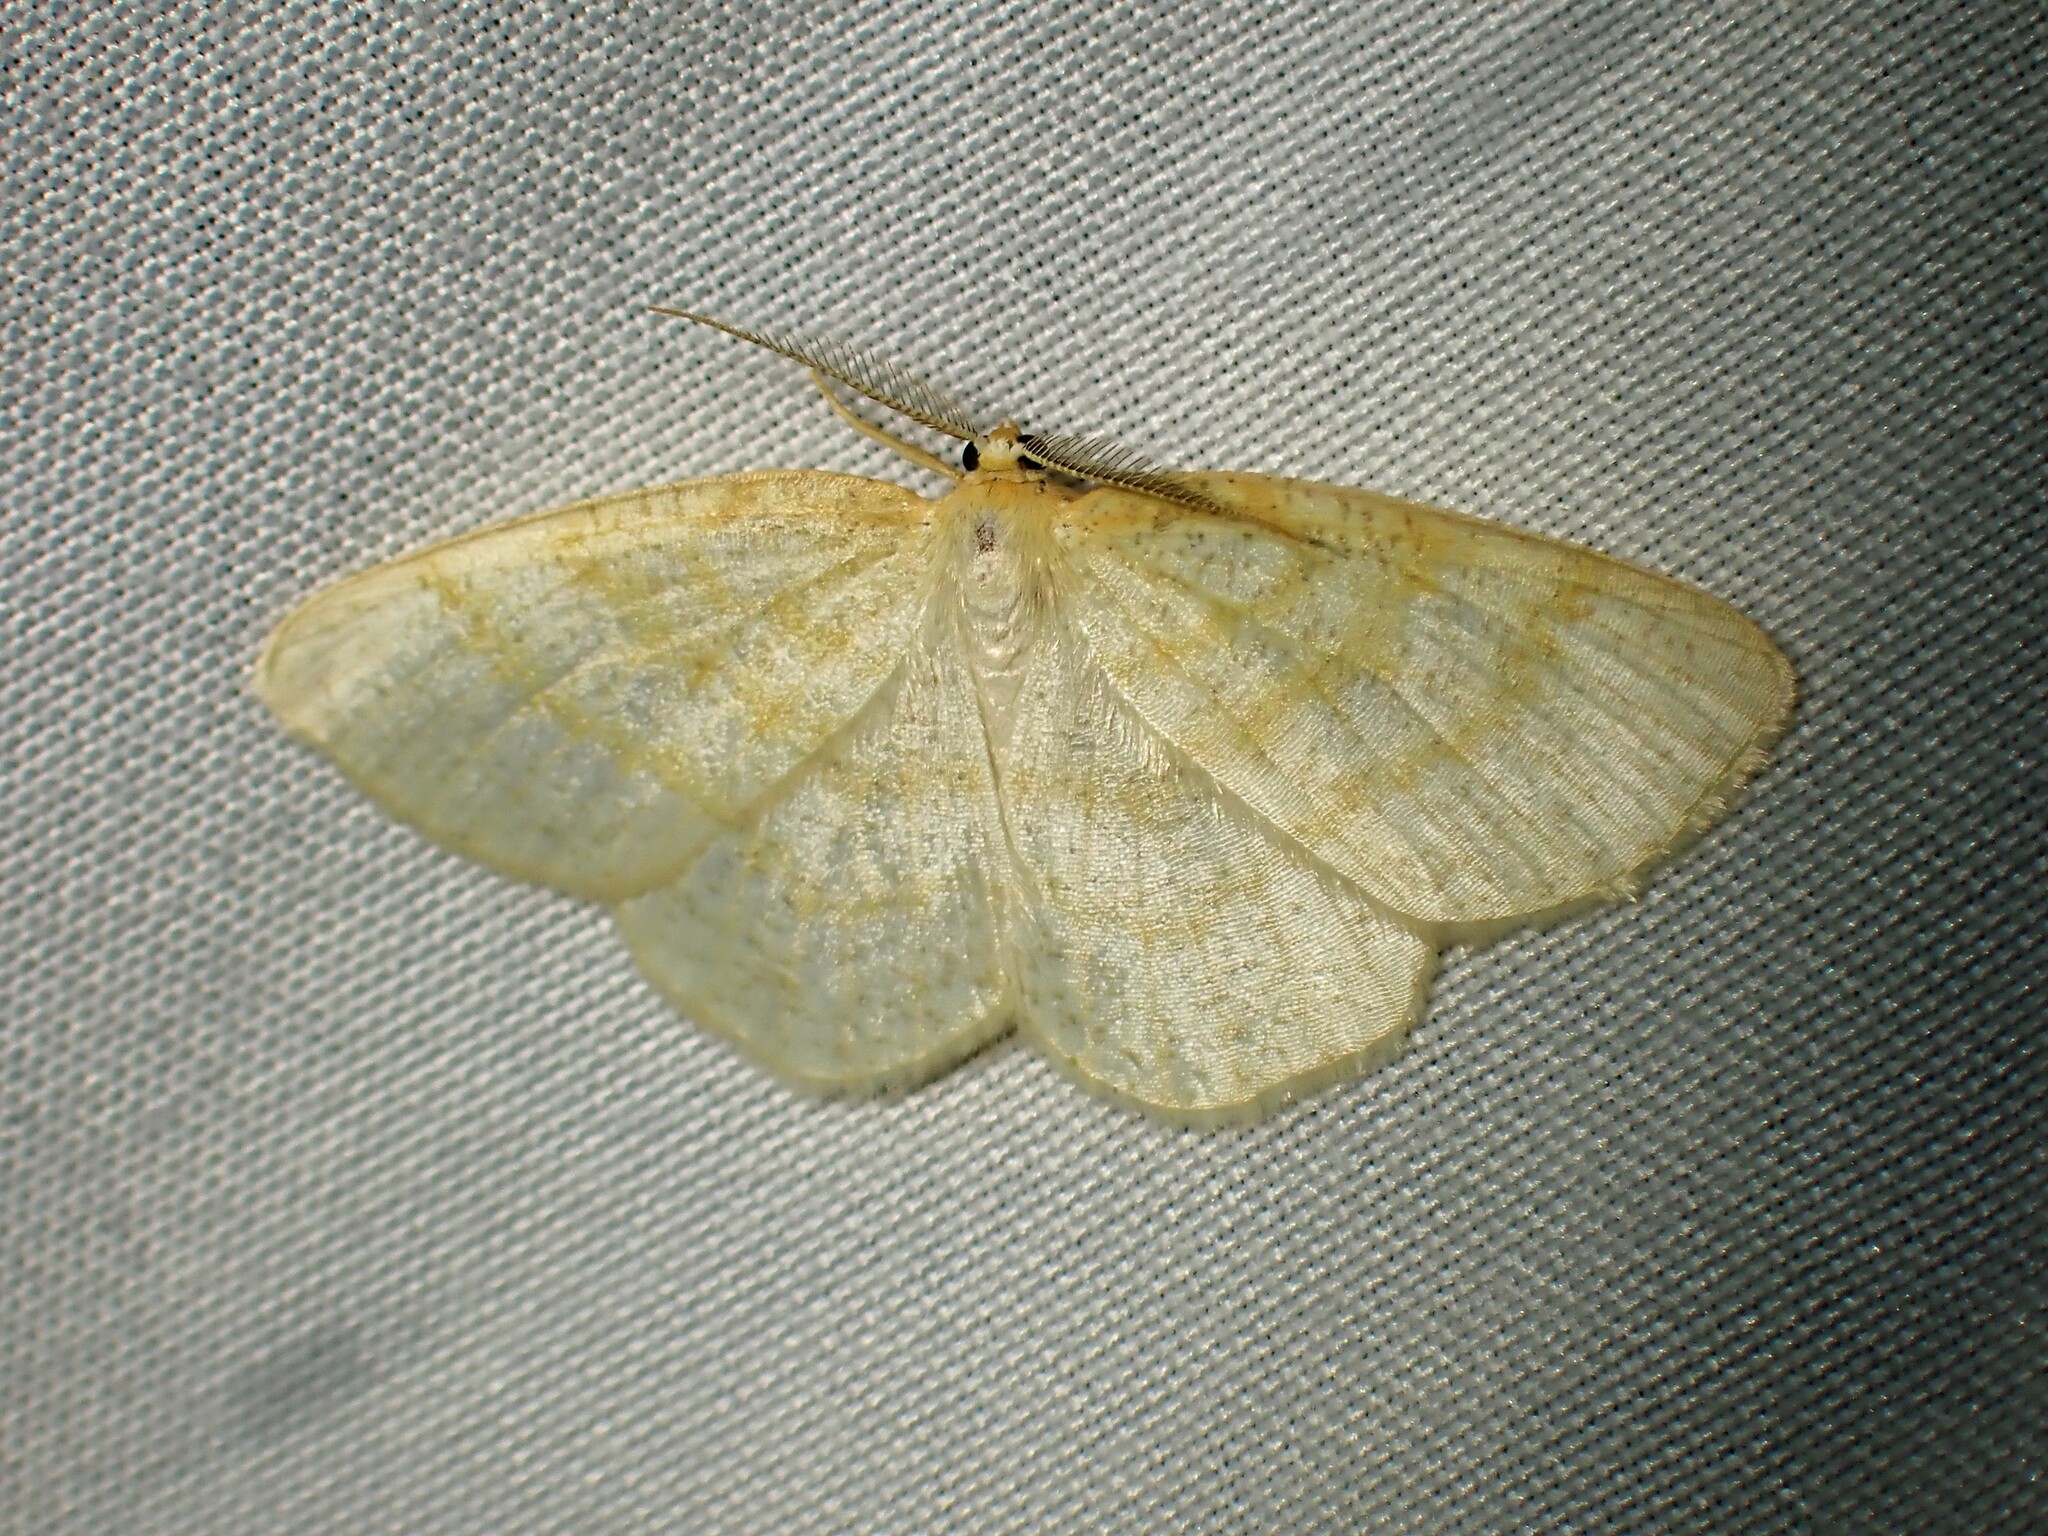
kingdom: Animalia
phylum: Arthropoda
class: Insecta
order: Lepidoptera
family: Geometridae
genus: Cabera
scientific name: Cabera erythemaria
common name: Yellow-dusted cream moth
